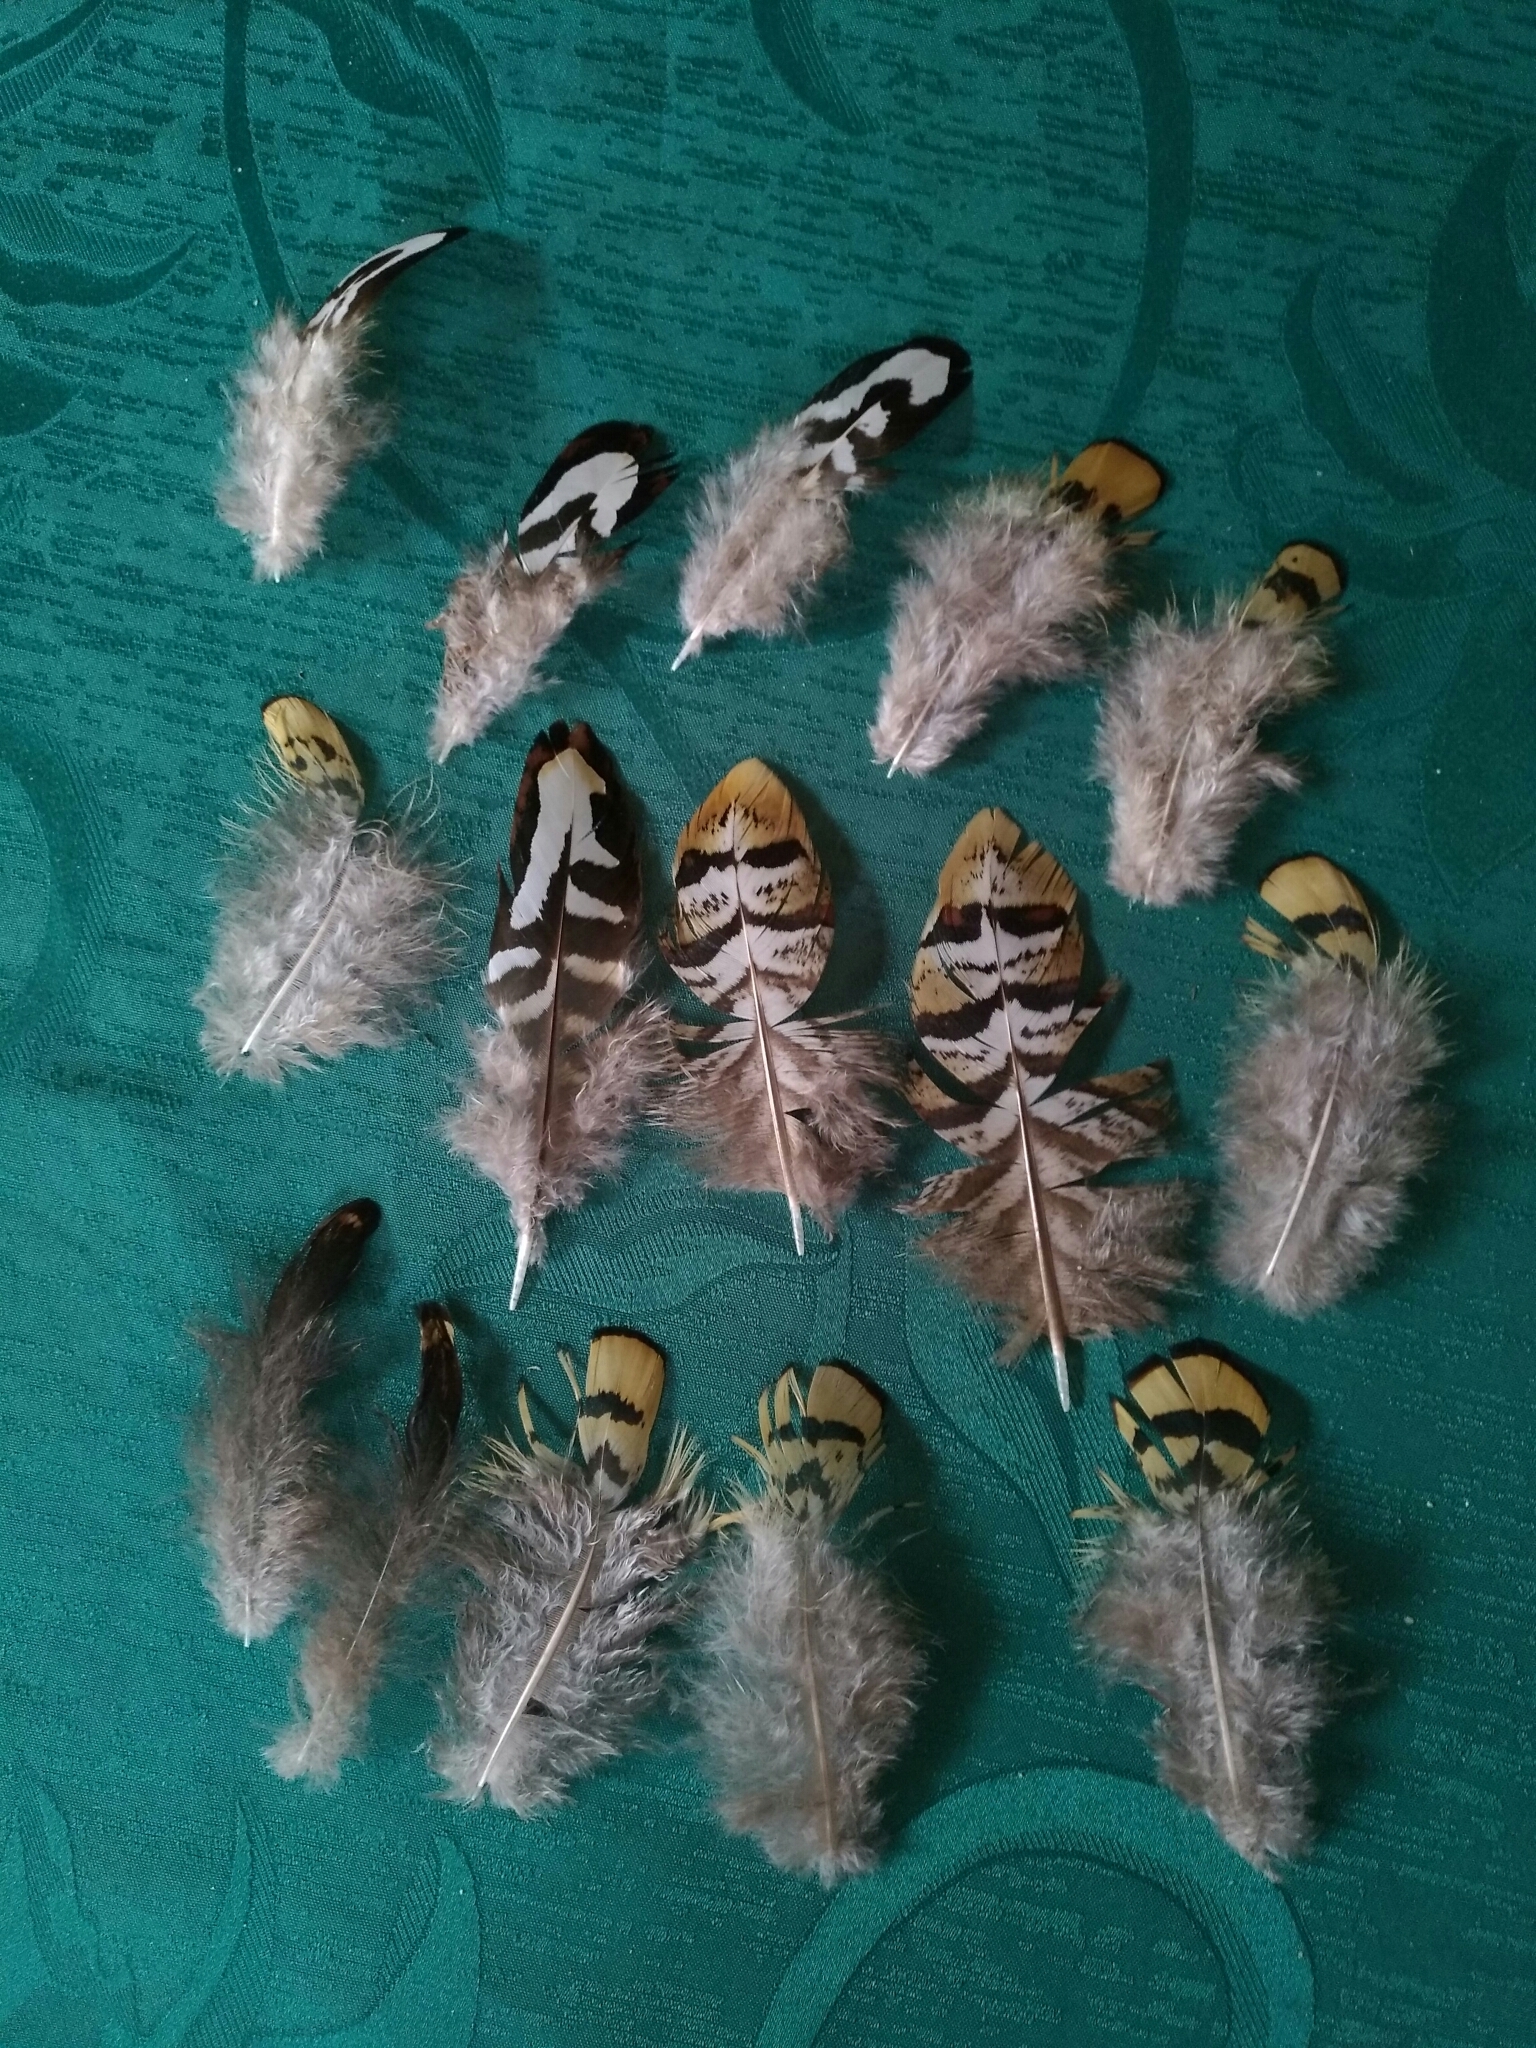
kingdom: Animalia
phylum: Chordata
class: Aves
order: Galliformes
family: Phasianidae
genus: Syrmaticus
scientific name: Syrmaticus reevesii
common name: Reeves's pheasant
